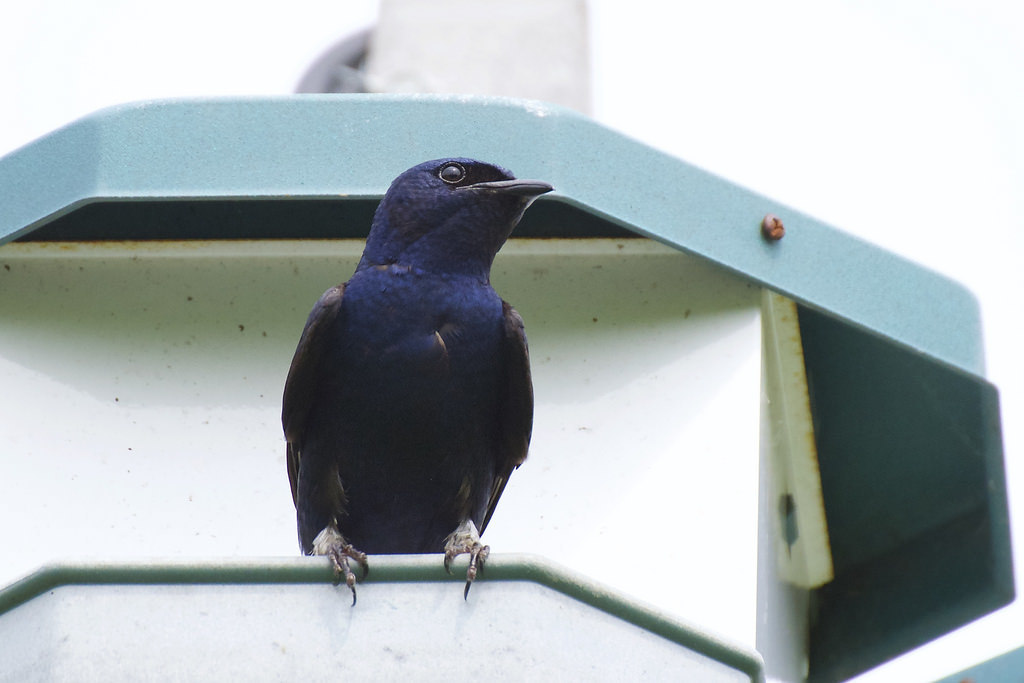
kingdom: Animalia
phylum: Chordata
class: Aves
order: Passeriformes
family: Hirundinidae
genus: Progne
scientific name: Progne subis
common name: Purple martin
